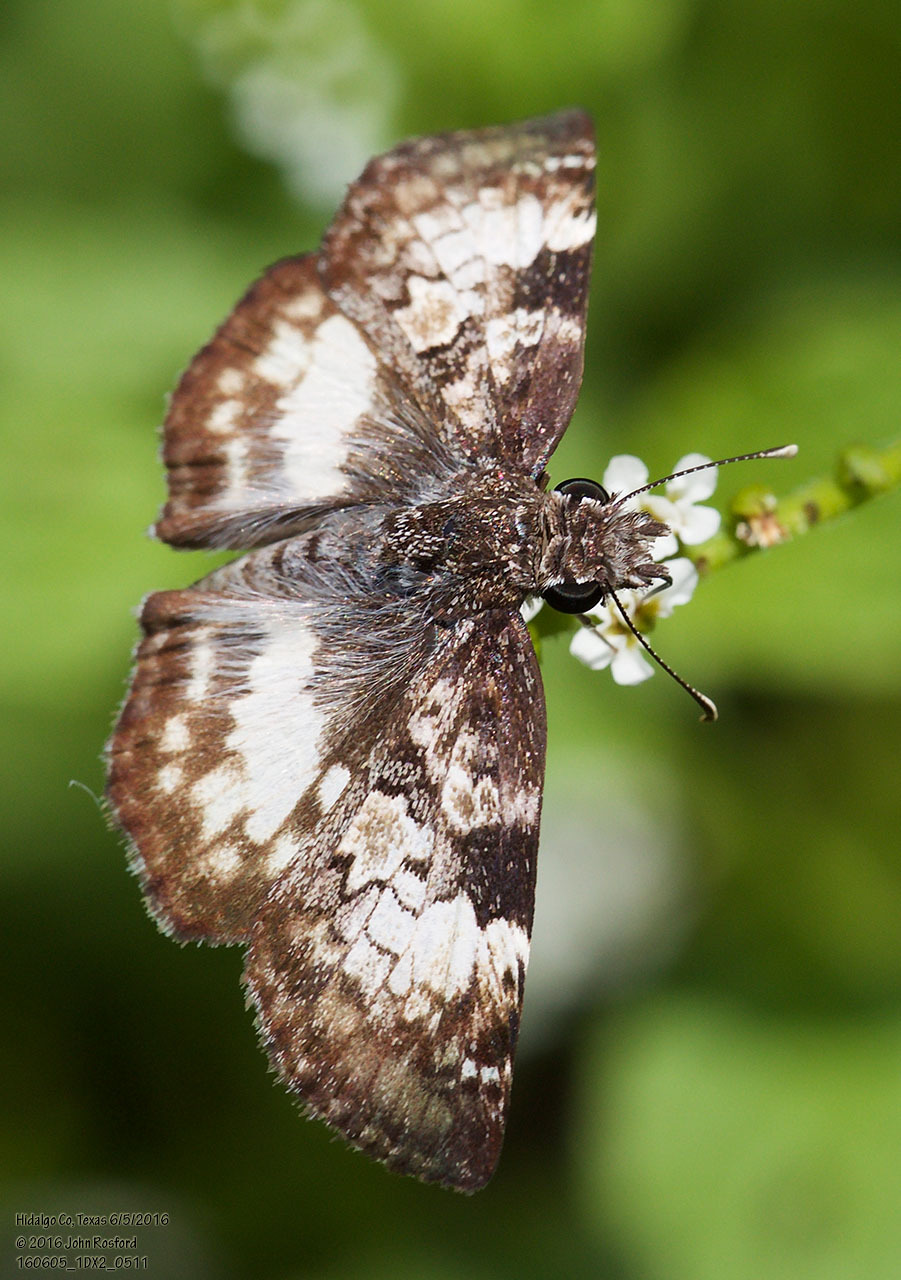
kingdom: Animalia
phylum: Arthropoda
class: Insecta
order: Lepidoptera
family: Hesperiidae
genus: Chiothion
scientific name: Chiothion georgina
